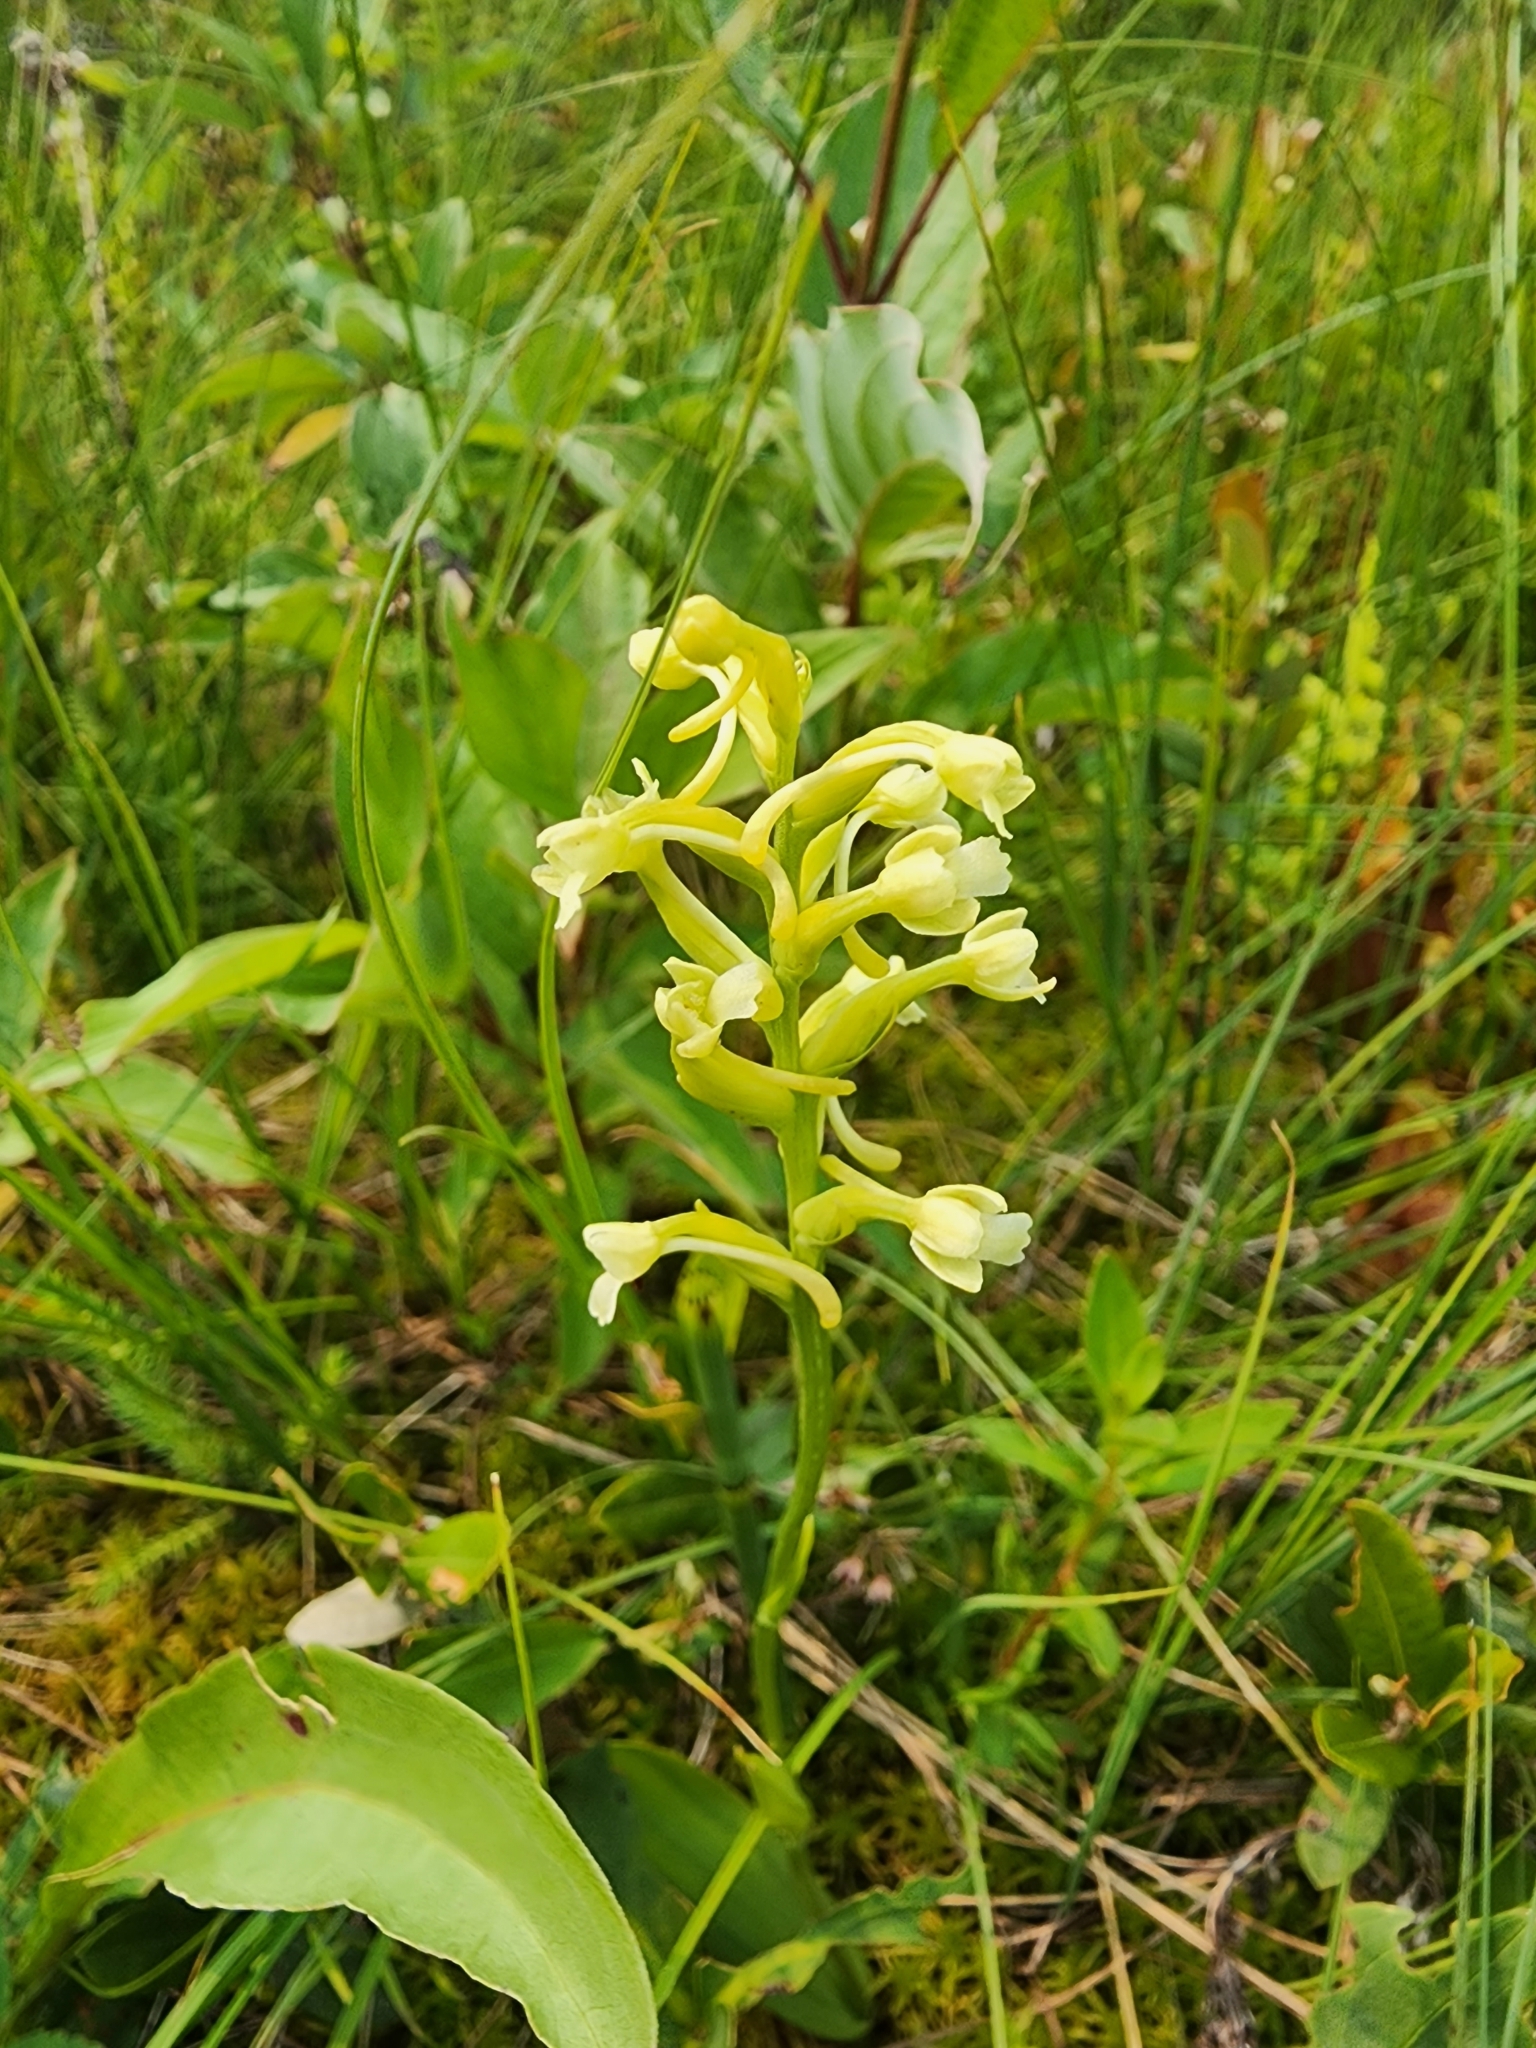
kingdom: Plantae
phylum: Tracheophyta
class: Liliopsida
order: Asparagales
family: Orchidaceae
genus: Platanthera
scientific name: Platanthera clavellata
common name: Club-spur orchid
